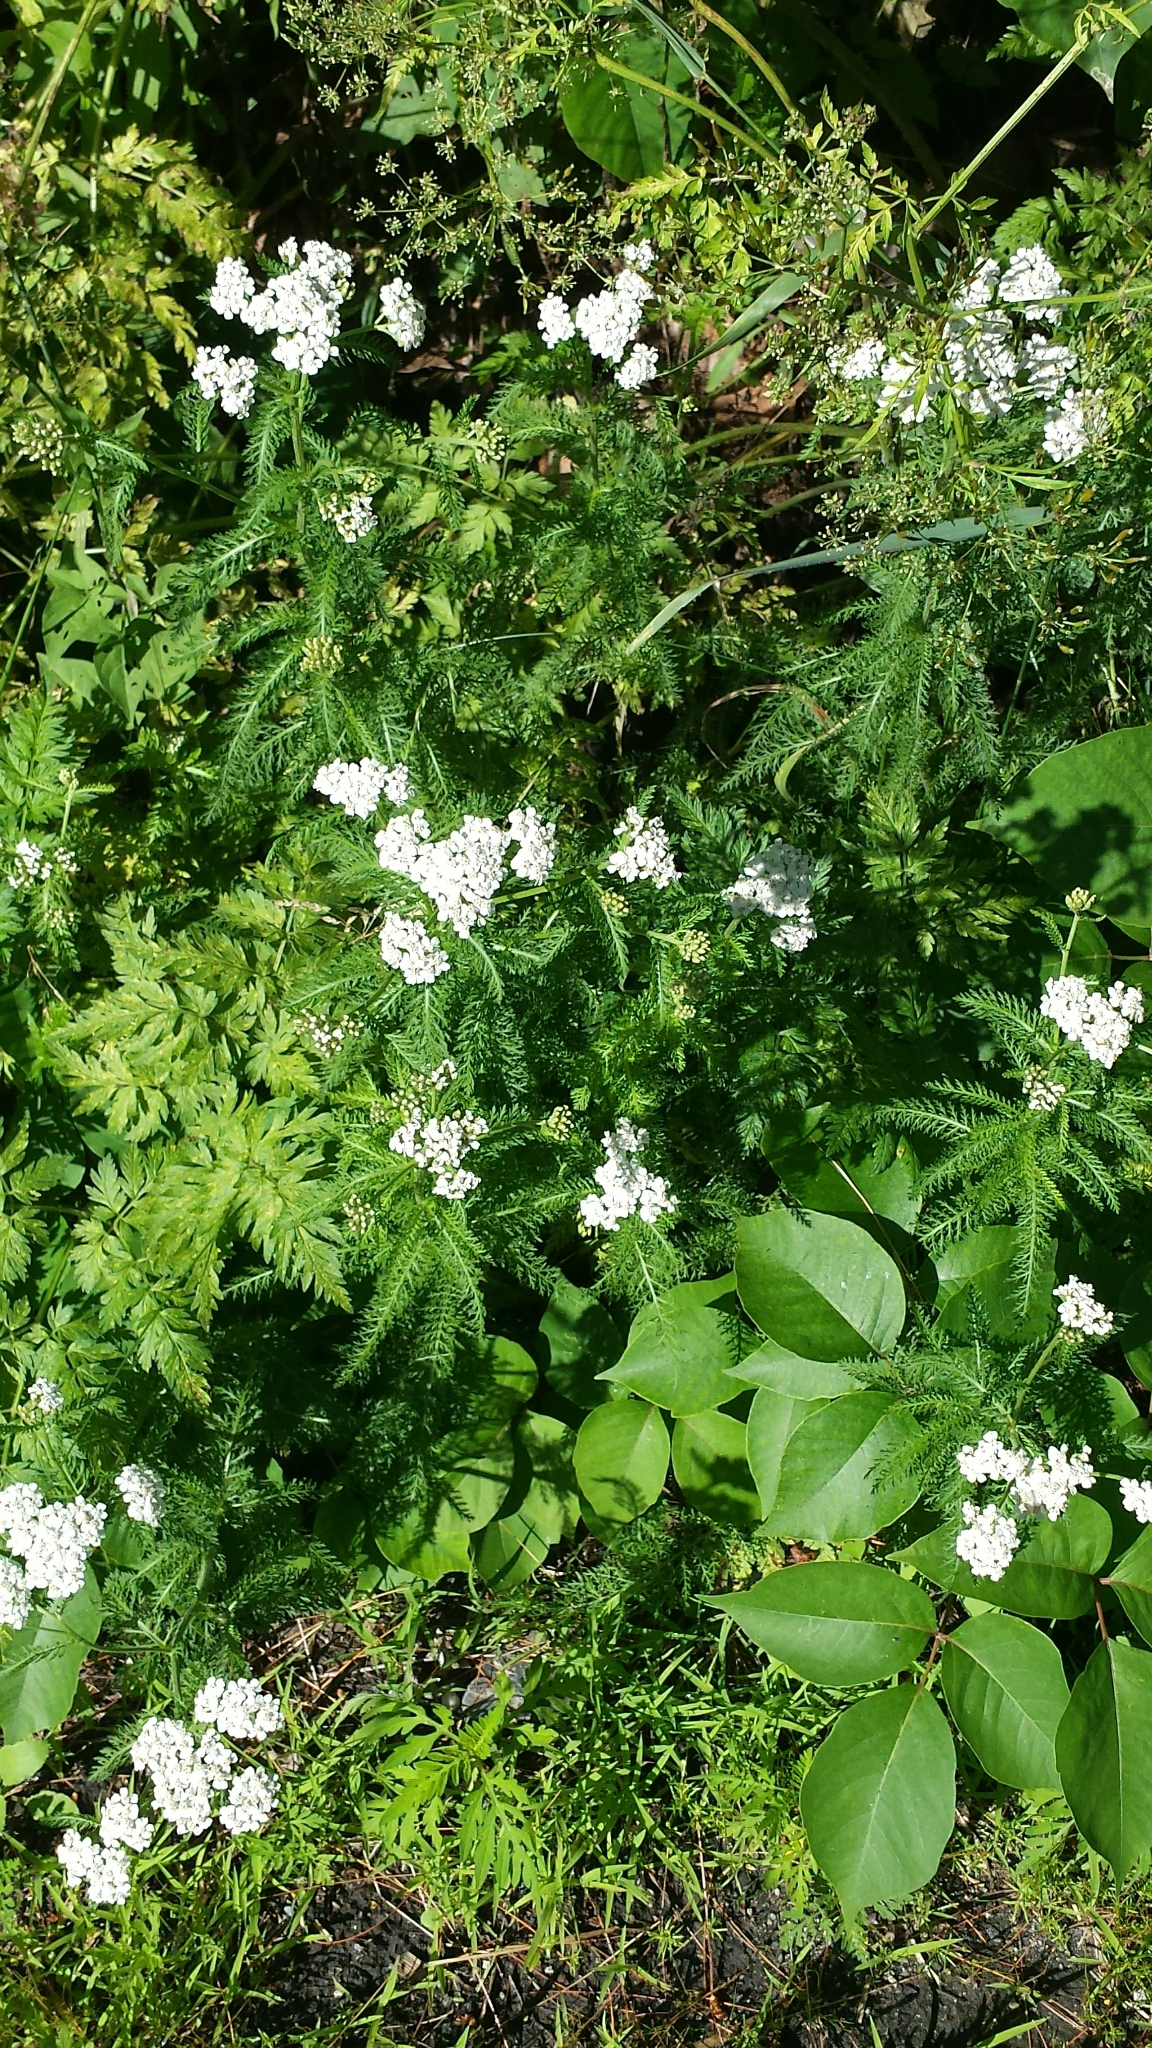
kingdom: Plantae
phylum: Tracheophyta
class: Magnoliopsida
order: Asterales
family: Asteraceae
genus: Achillea
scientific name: Achillea millefolium
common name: Yarrow
